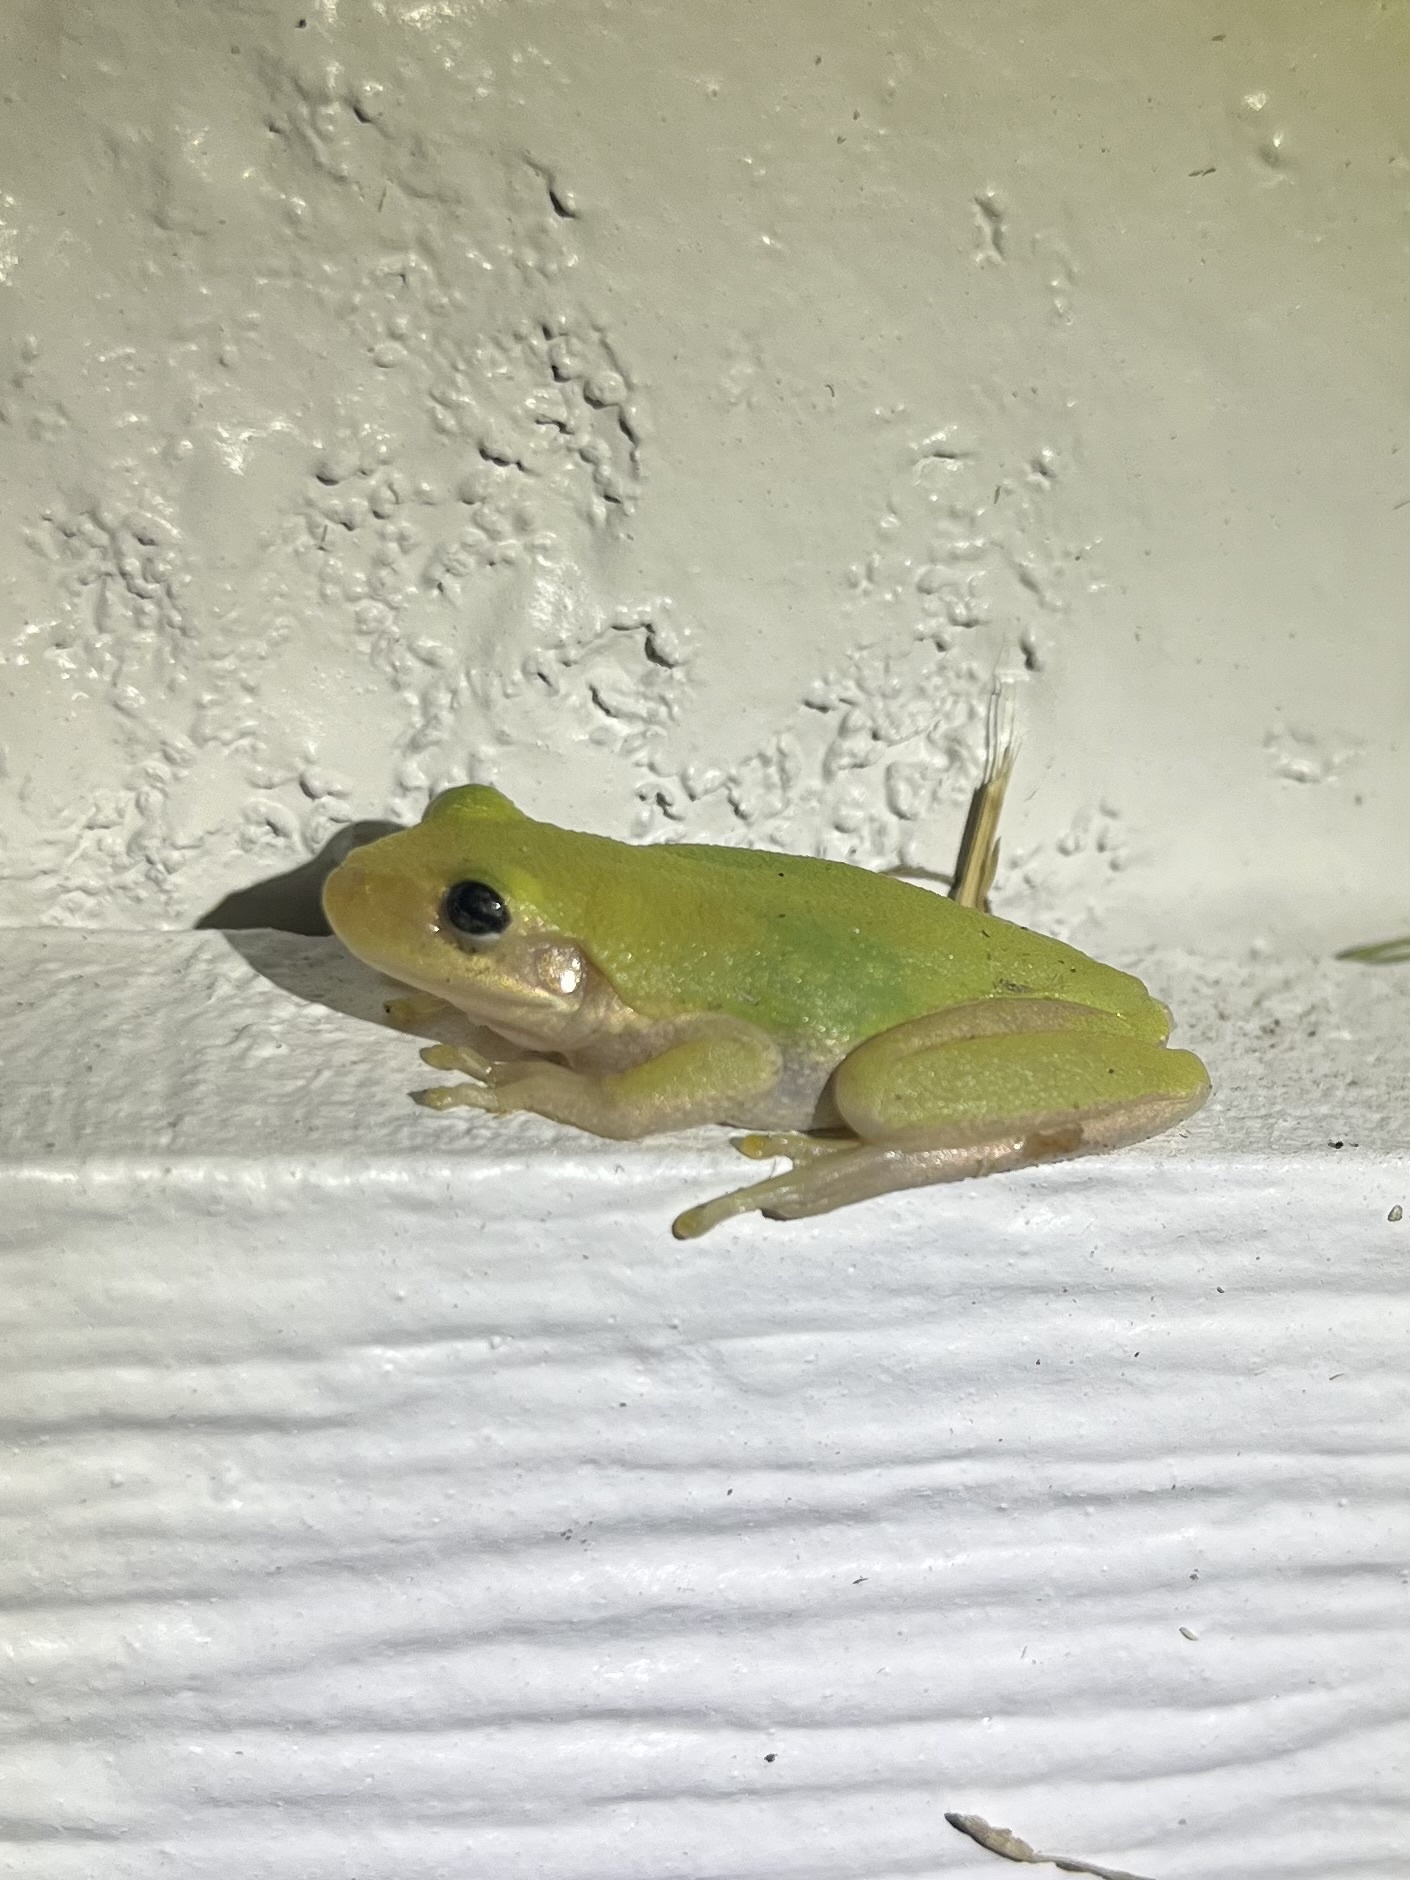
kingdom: Animalia
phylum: Chordata
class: Amphibia
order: Anura
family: Hylidae
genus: Dryophytes
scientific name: Dryophytes squirellus
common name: Squirrel treefrog
